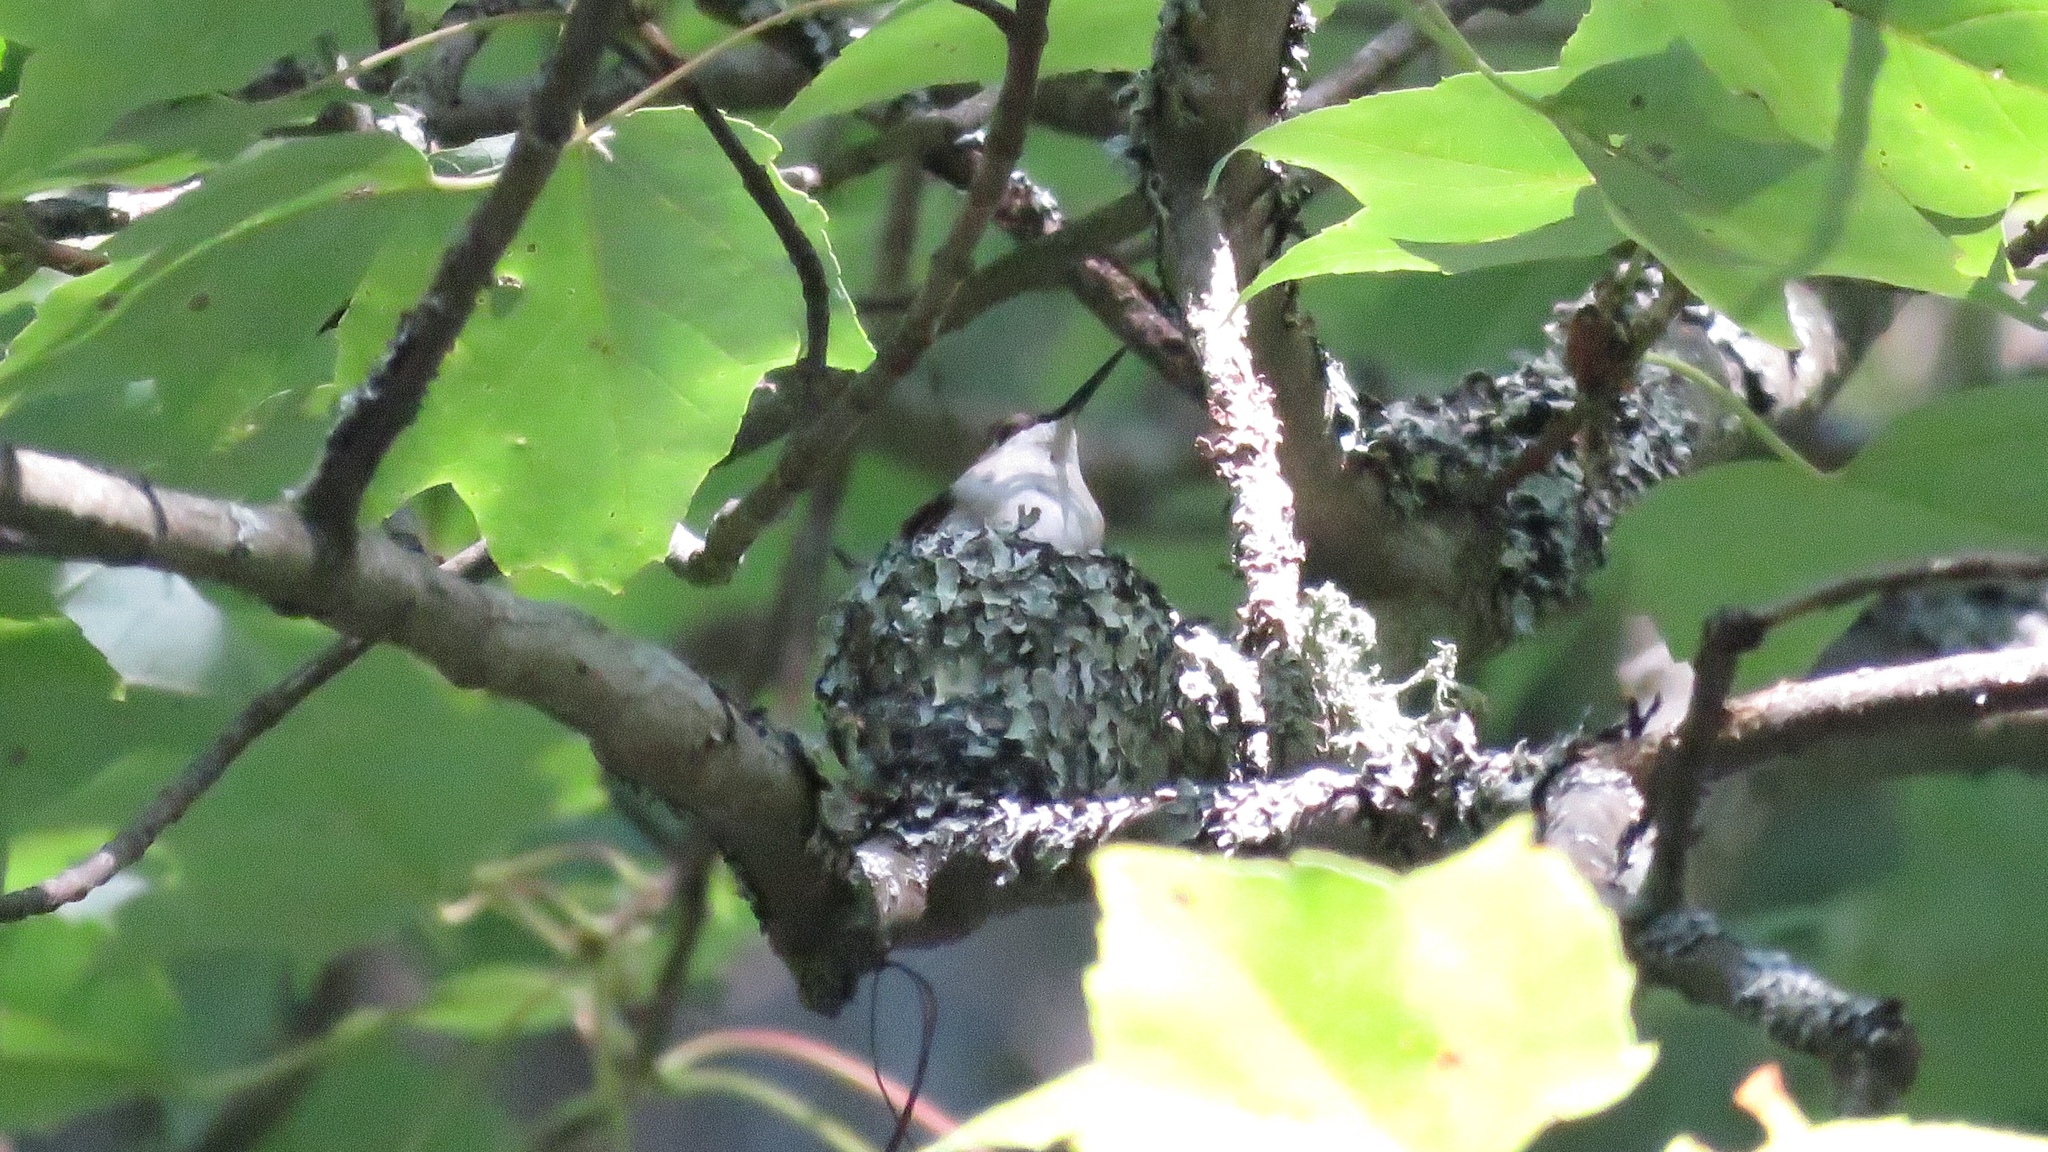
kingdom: Animalia
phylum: Chordata
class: Aves
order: Apodiformes
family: Trochilidae
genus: Archilochus
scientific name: Archilochus colubris
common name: Ruby-throated hummingbird
